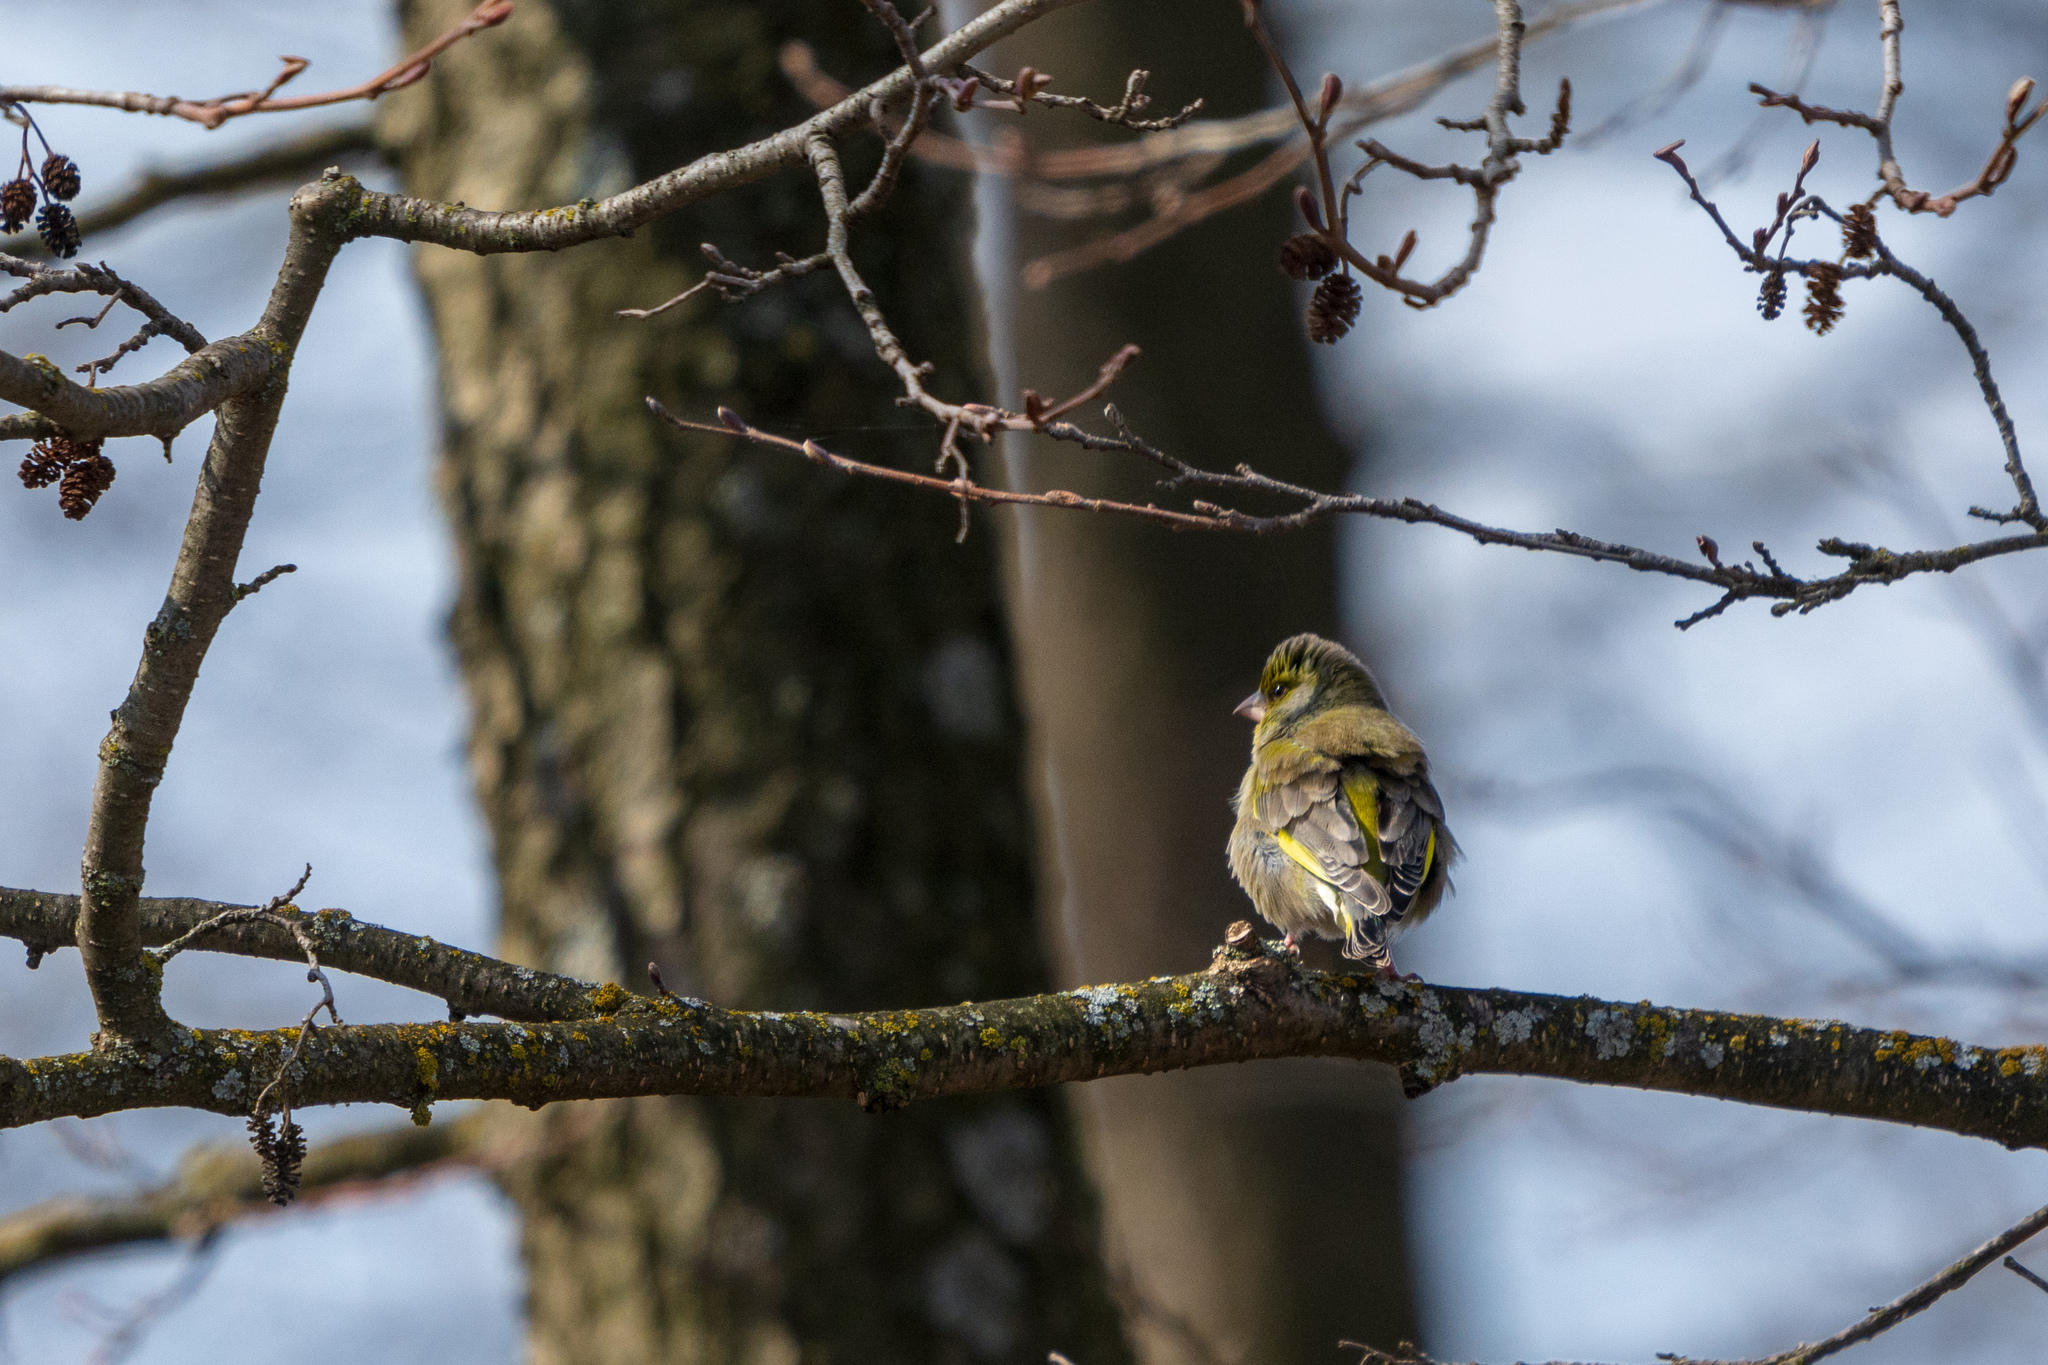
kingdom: Plantae
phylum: Tracheophyta
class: Liliopsida
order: Poales
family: Poaceae
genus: Chloris
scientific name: Chloris chloris
